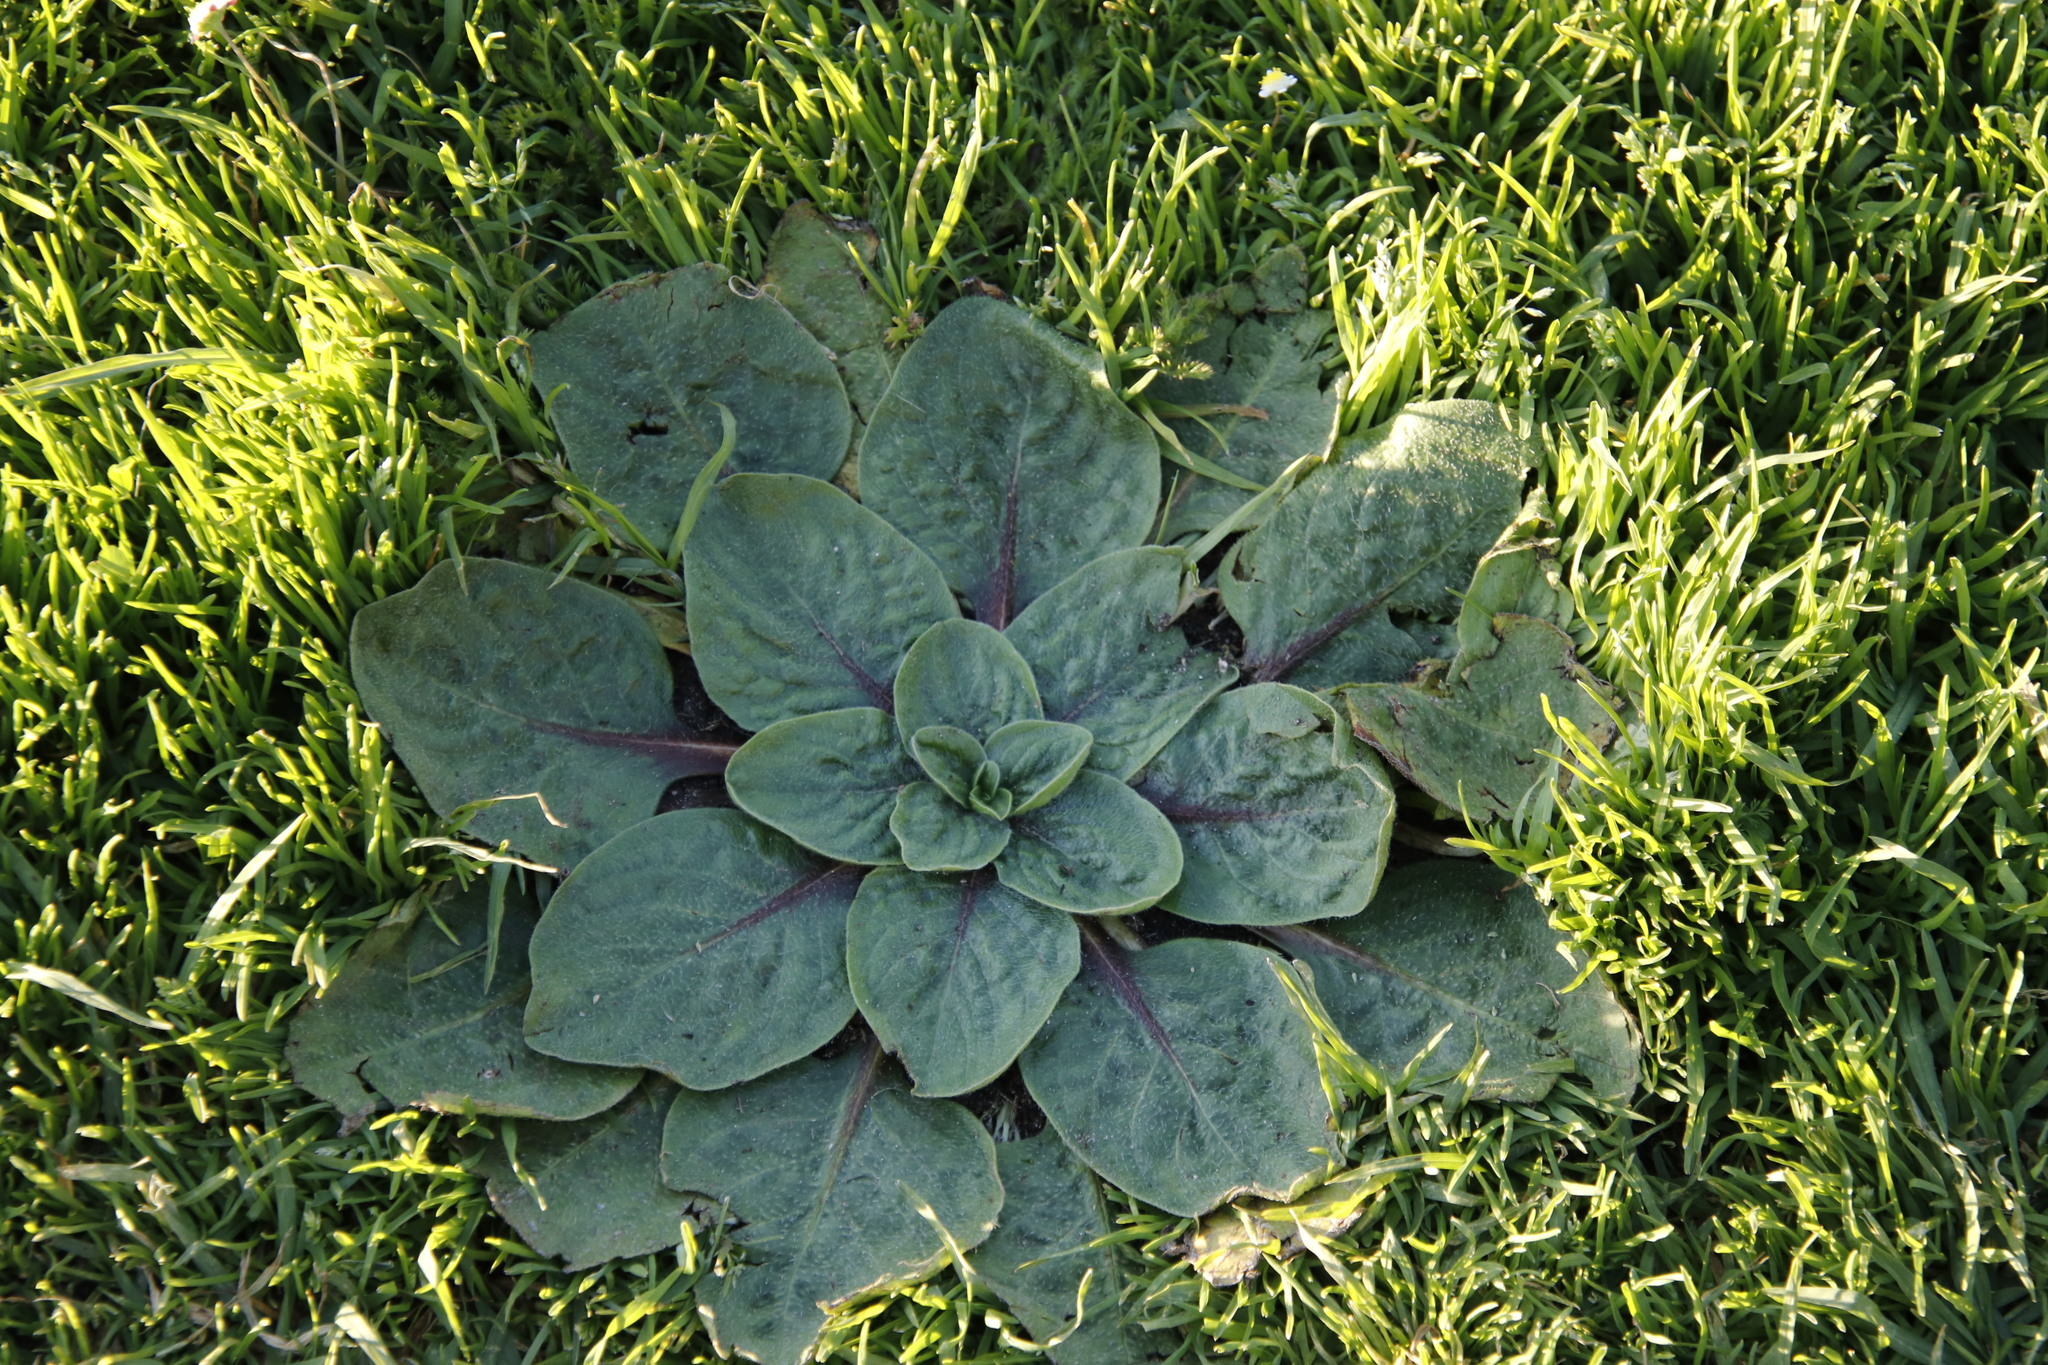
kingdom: Plantae
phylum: Tracheophyta
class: Magnoliopsida
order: Boraginales
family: Boraginaceae
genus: Echium
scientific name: Echium plantagineum
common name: Purple viper's-bugloss
